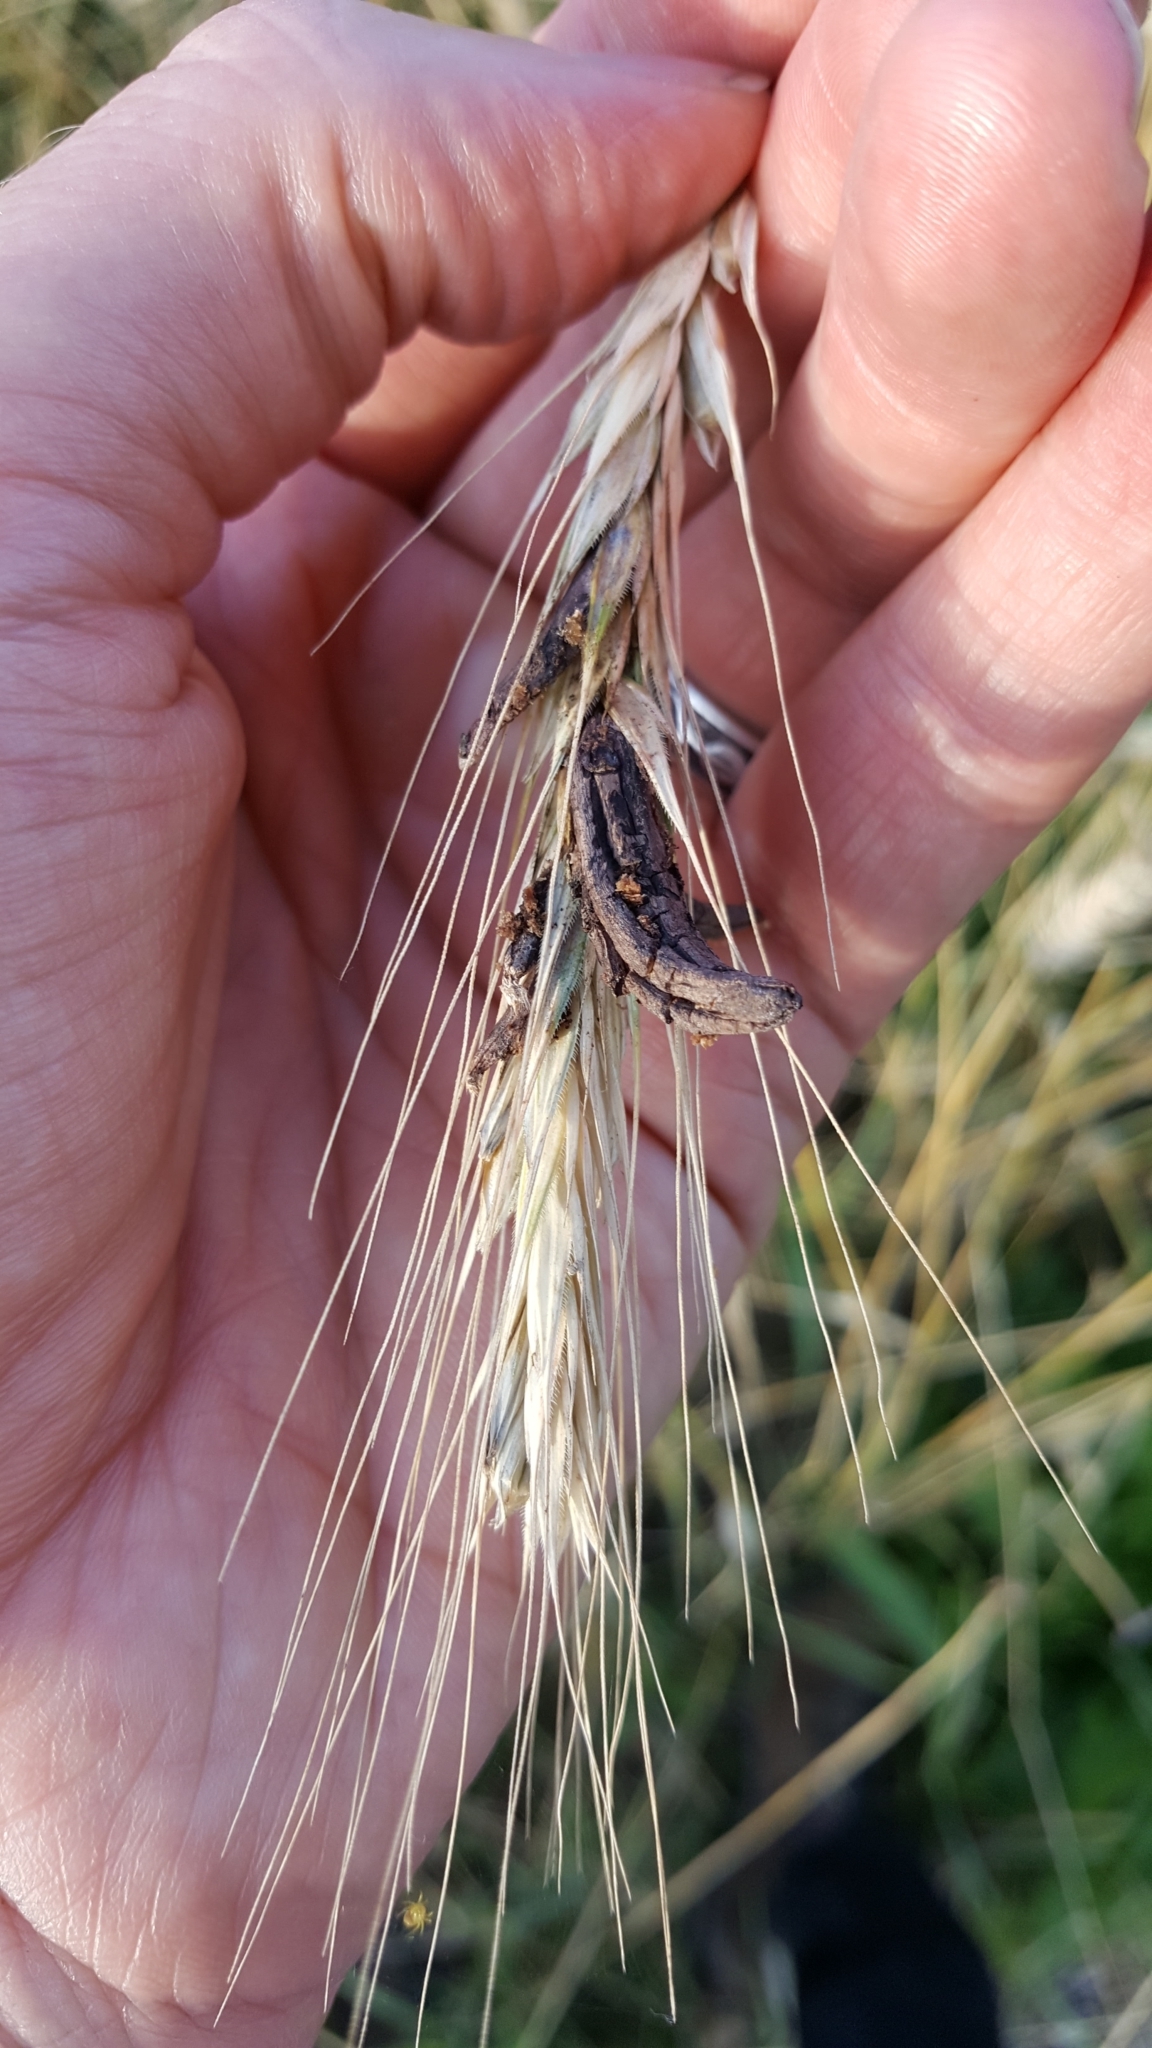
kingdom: Fungi
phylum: Ascomycota
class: Sordariomycetes
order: Hypocreales
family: Clavicipitaceae
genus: Claviceps
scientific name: Claviceps purpurea
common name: Rye ergot
